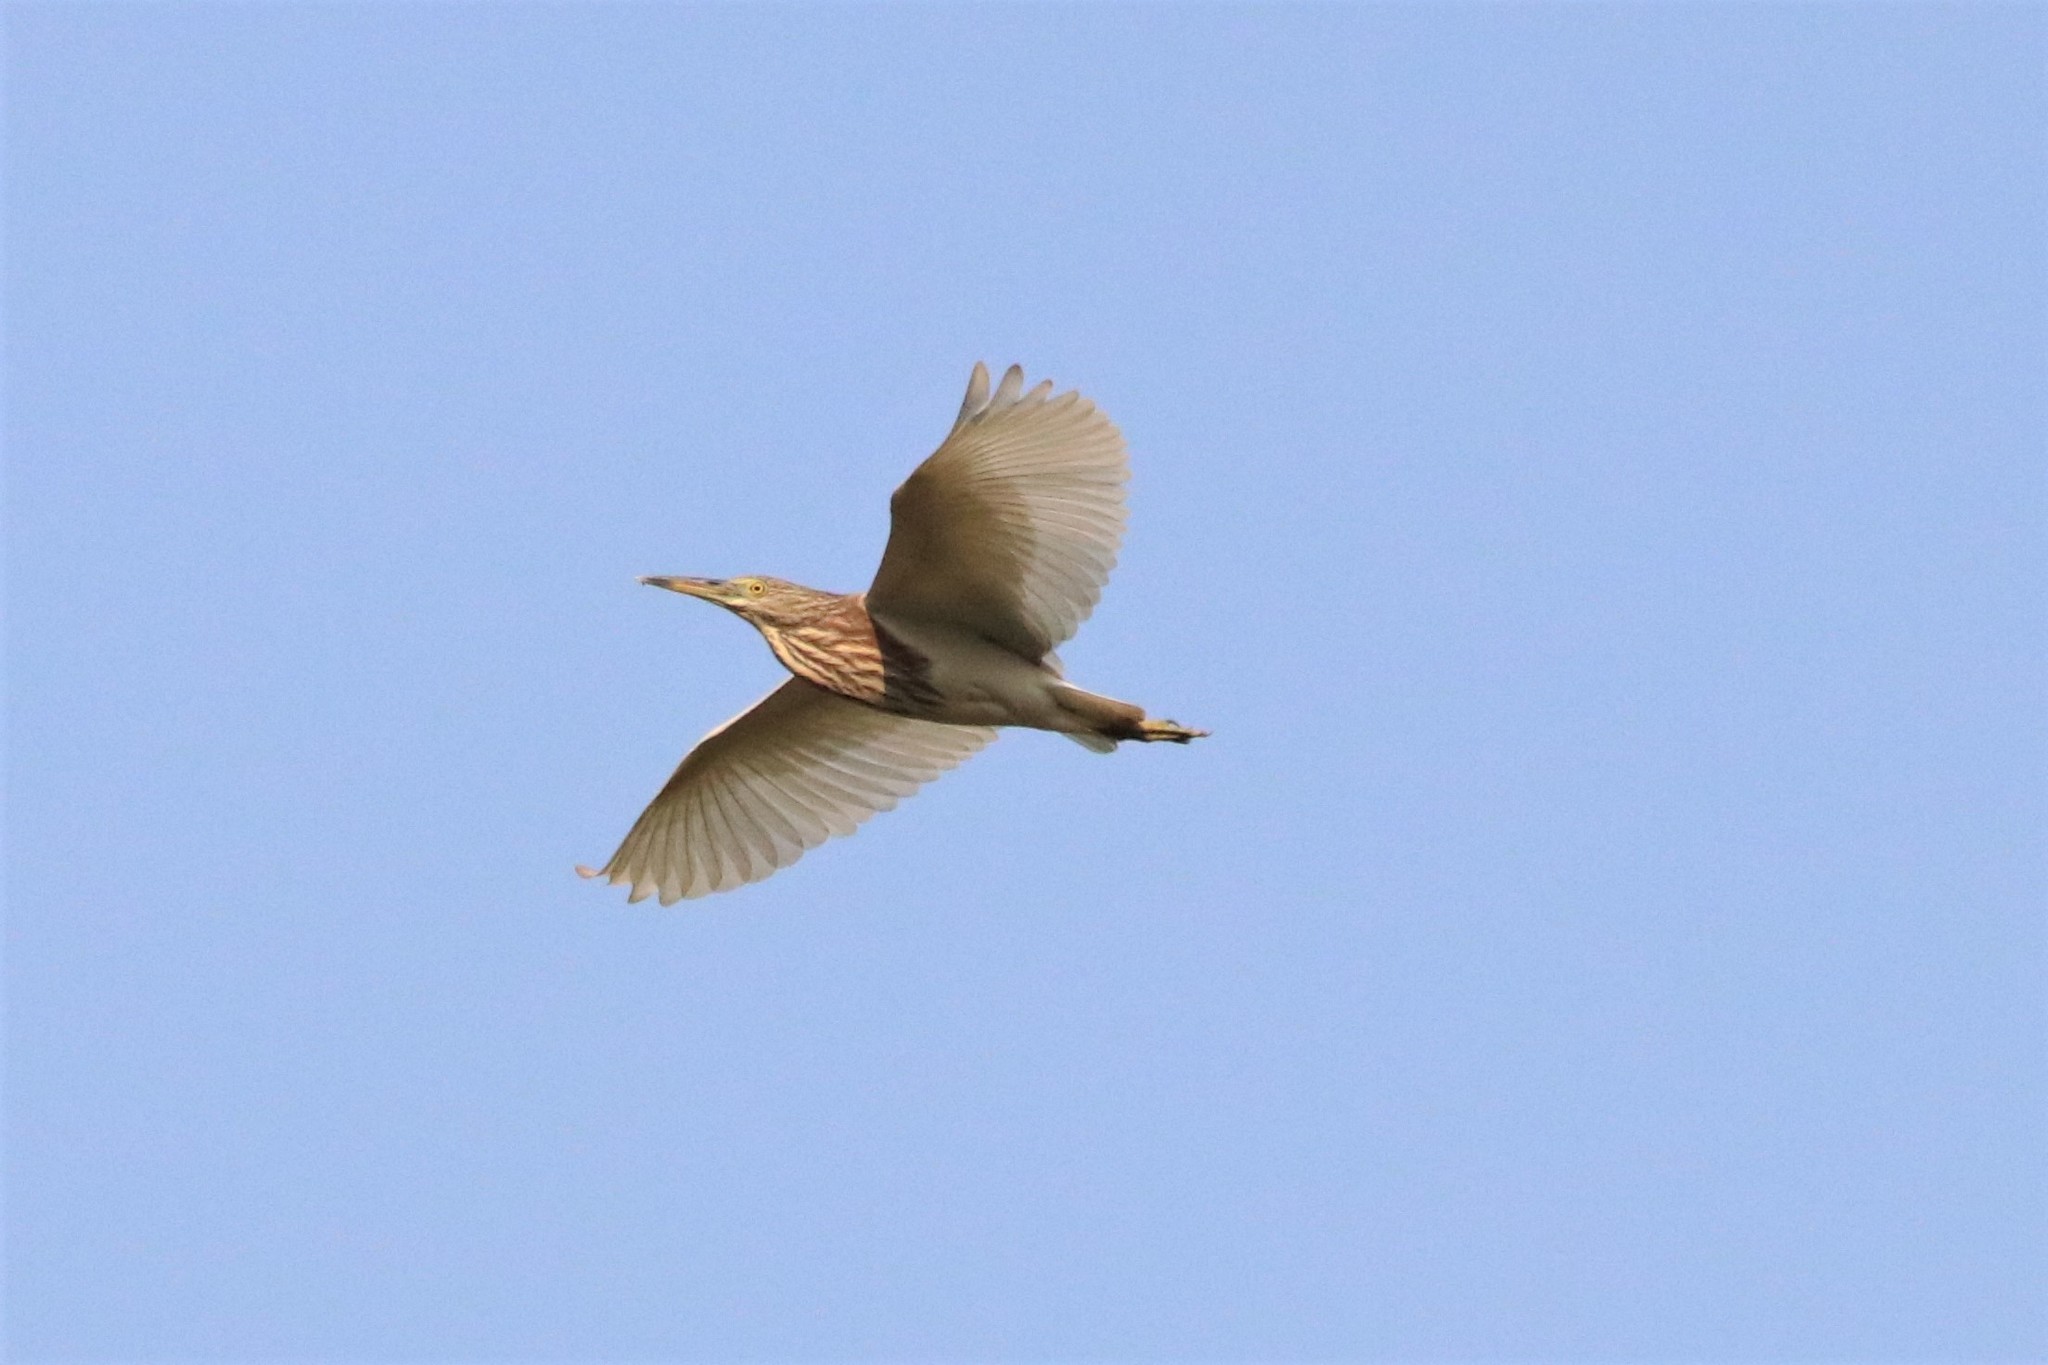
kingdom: Animalia
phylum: Chordata
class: Aves
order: Pelecaniformes
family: Ardeidae
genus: Ardeola
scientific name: Ardeola bacchus
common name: Chinese pond heron
